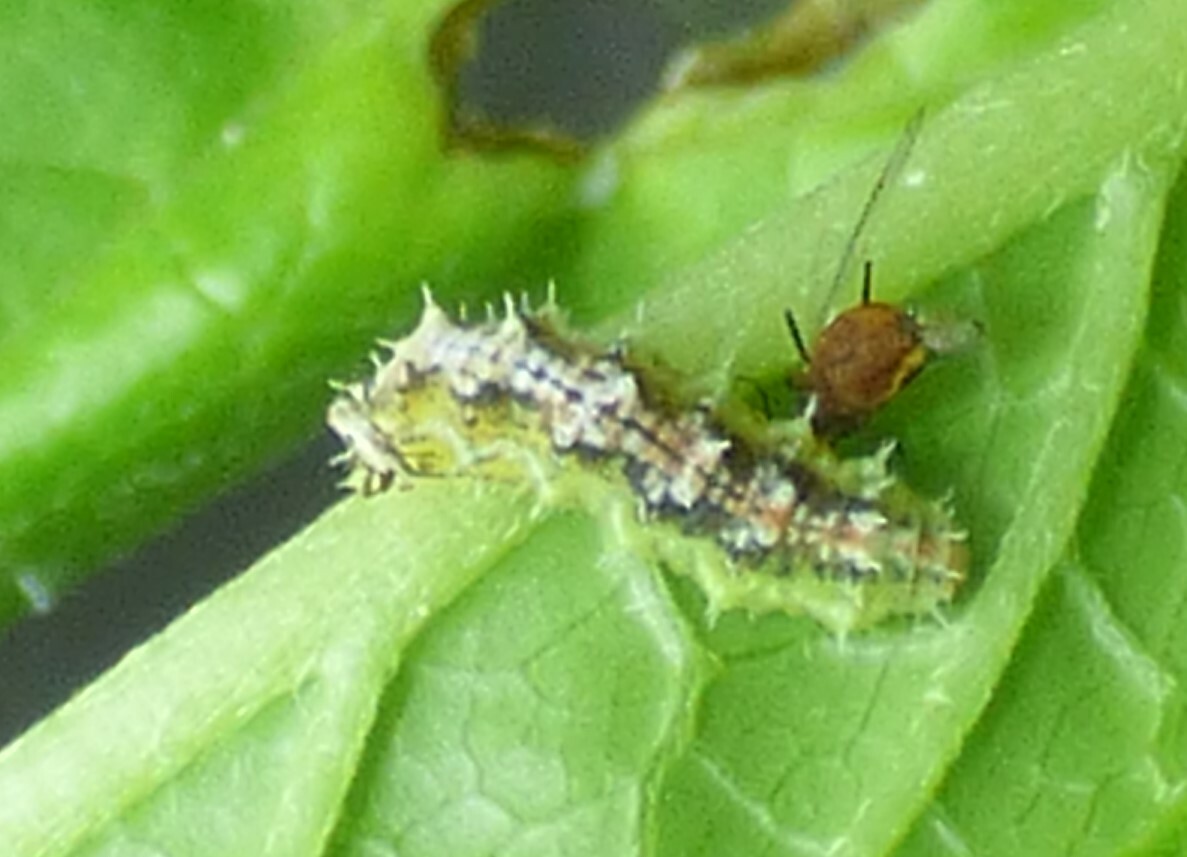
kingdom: Animalia
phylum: Arthropoda
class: Insecta
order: Diptera
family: Syrphidae
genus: Dioprosopa
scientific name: Dioprosopa clavatus
